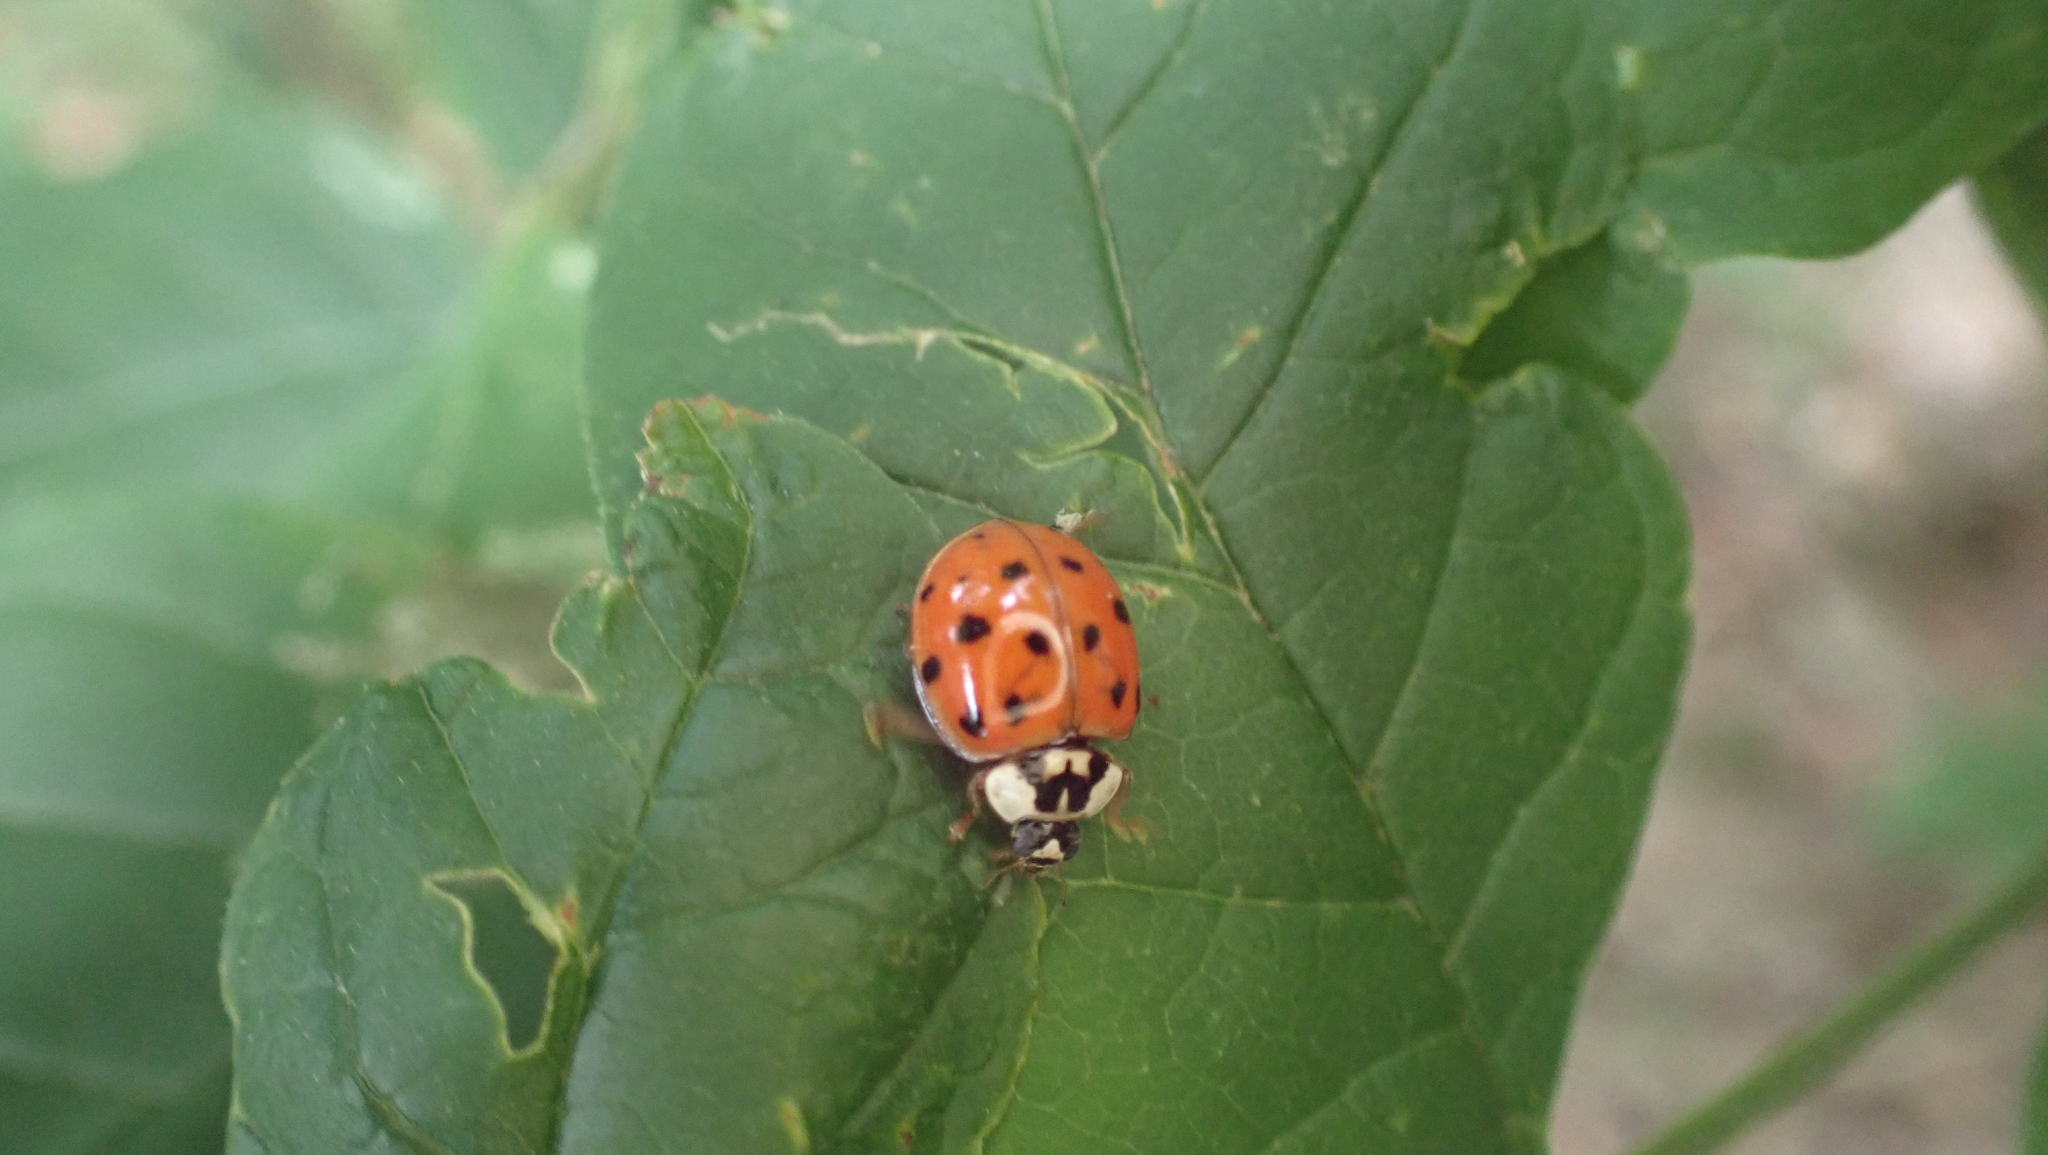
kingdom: Animalia
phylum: Arthropoda
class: Insecta
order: Coleoptera
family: Coccinellidae
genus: Harmonia
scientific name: Harmonia axyridis
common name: Harlequin ladybird
